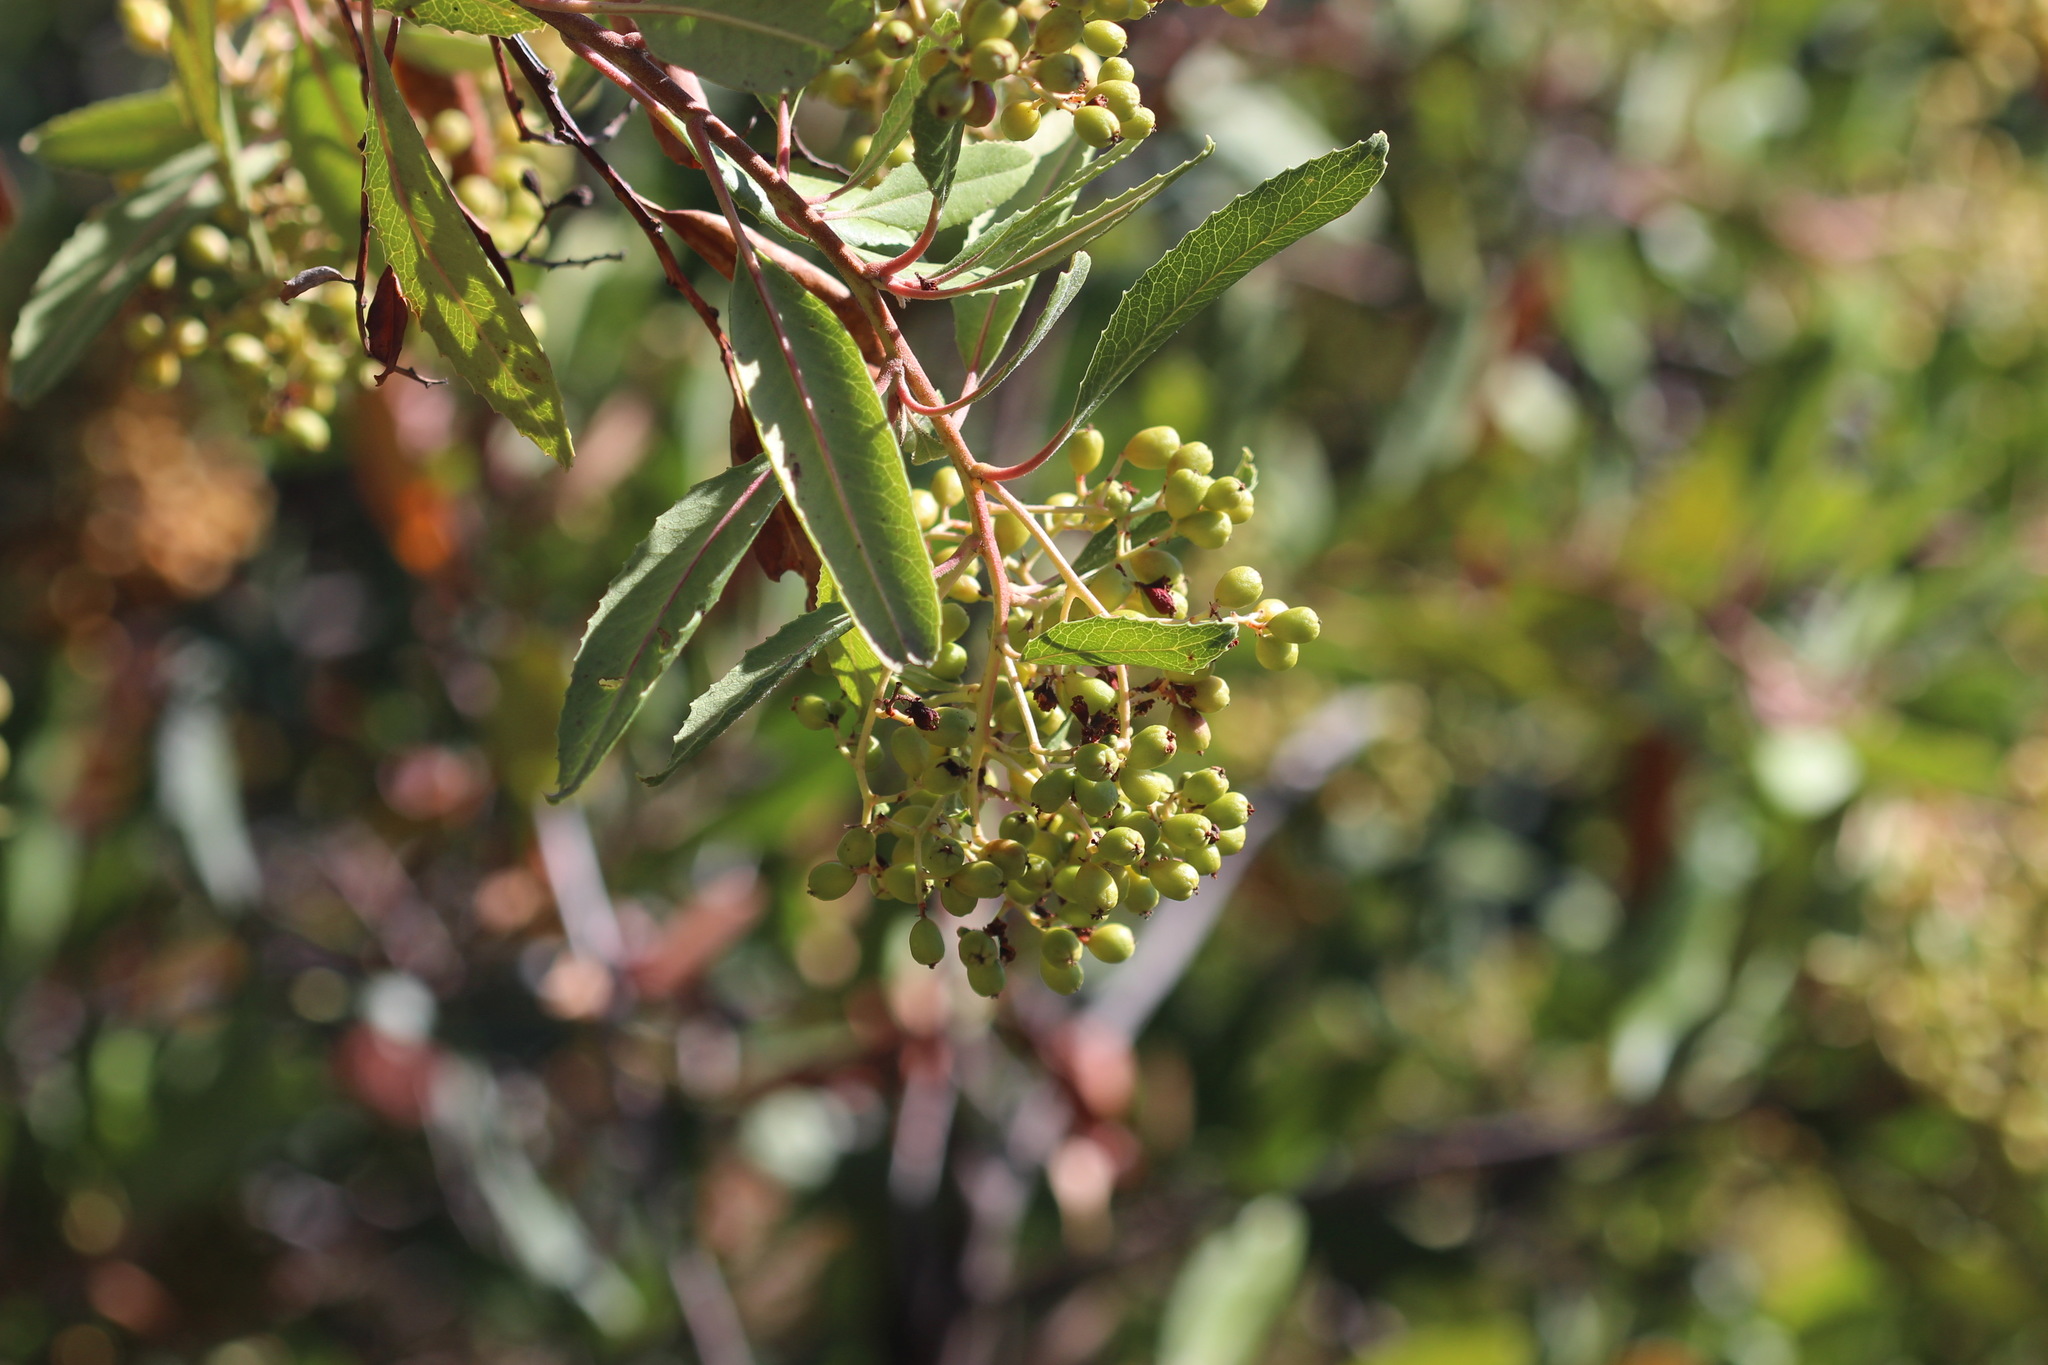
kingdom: Plantae
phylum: Tracheophyta
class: Magnoliopsida
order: Rosales
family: Rosaceae
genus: Heteromeles
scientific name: Heteromeles arbutifolia
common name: California-holly
